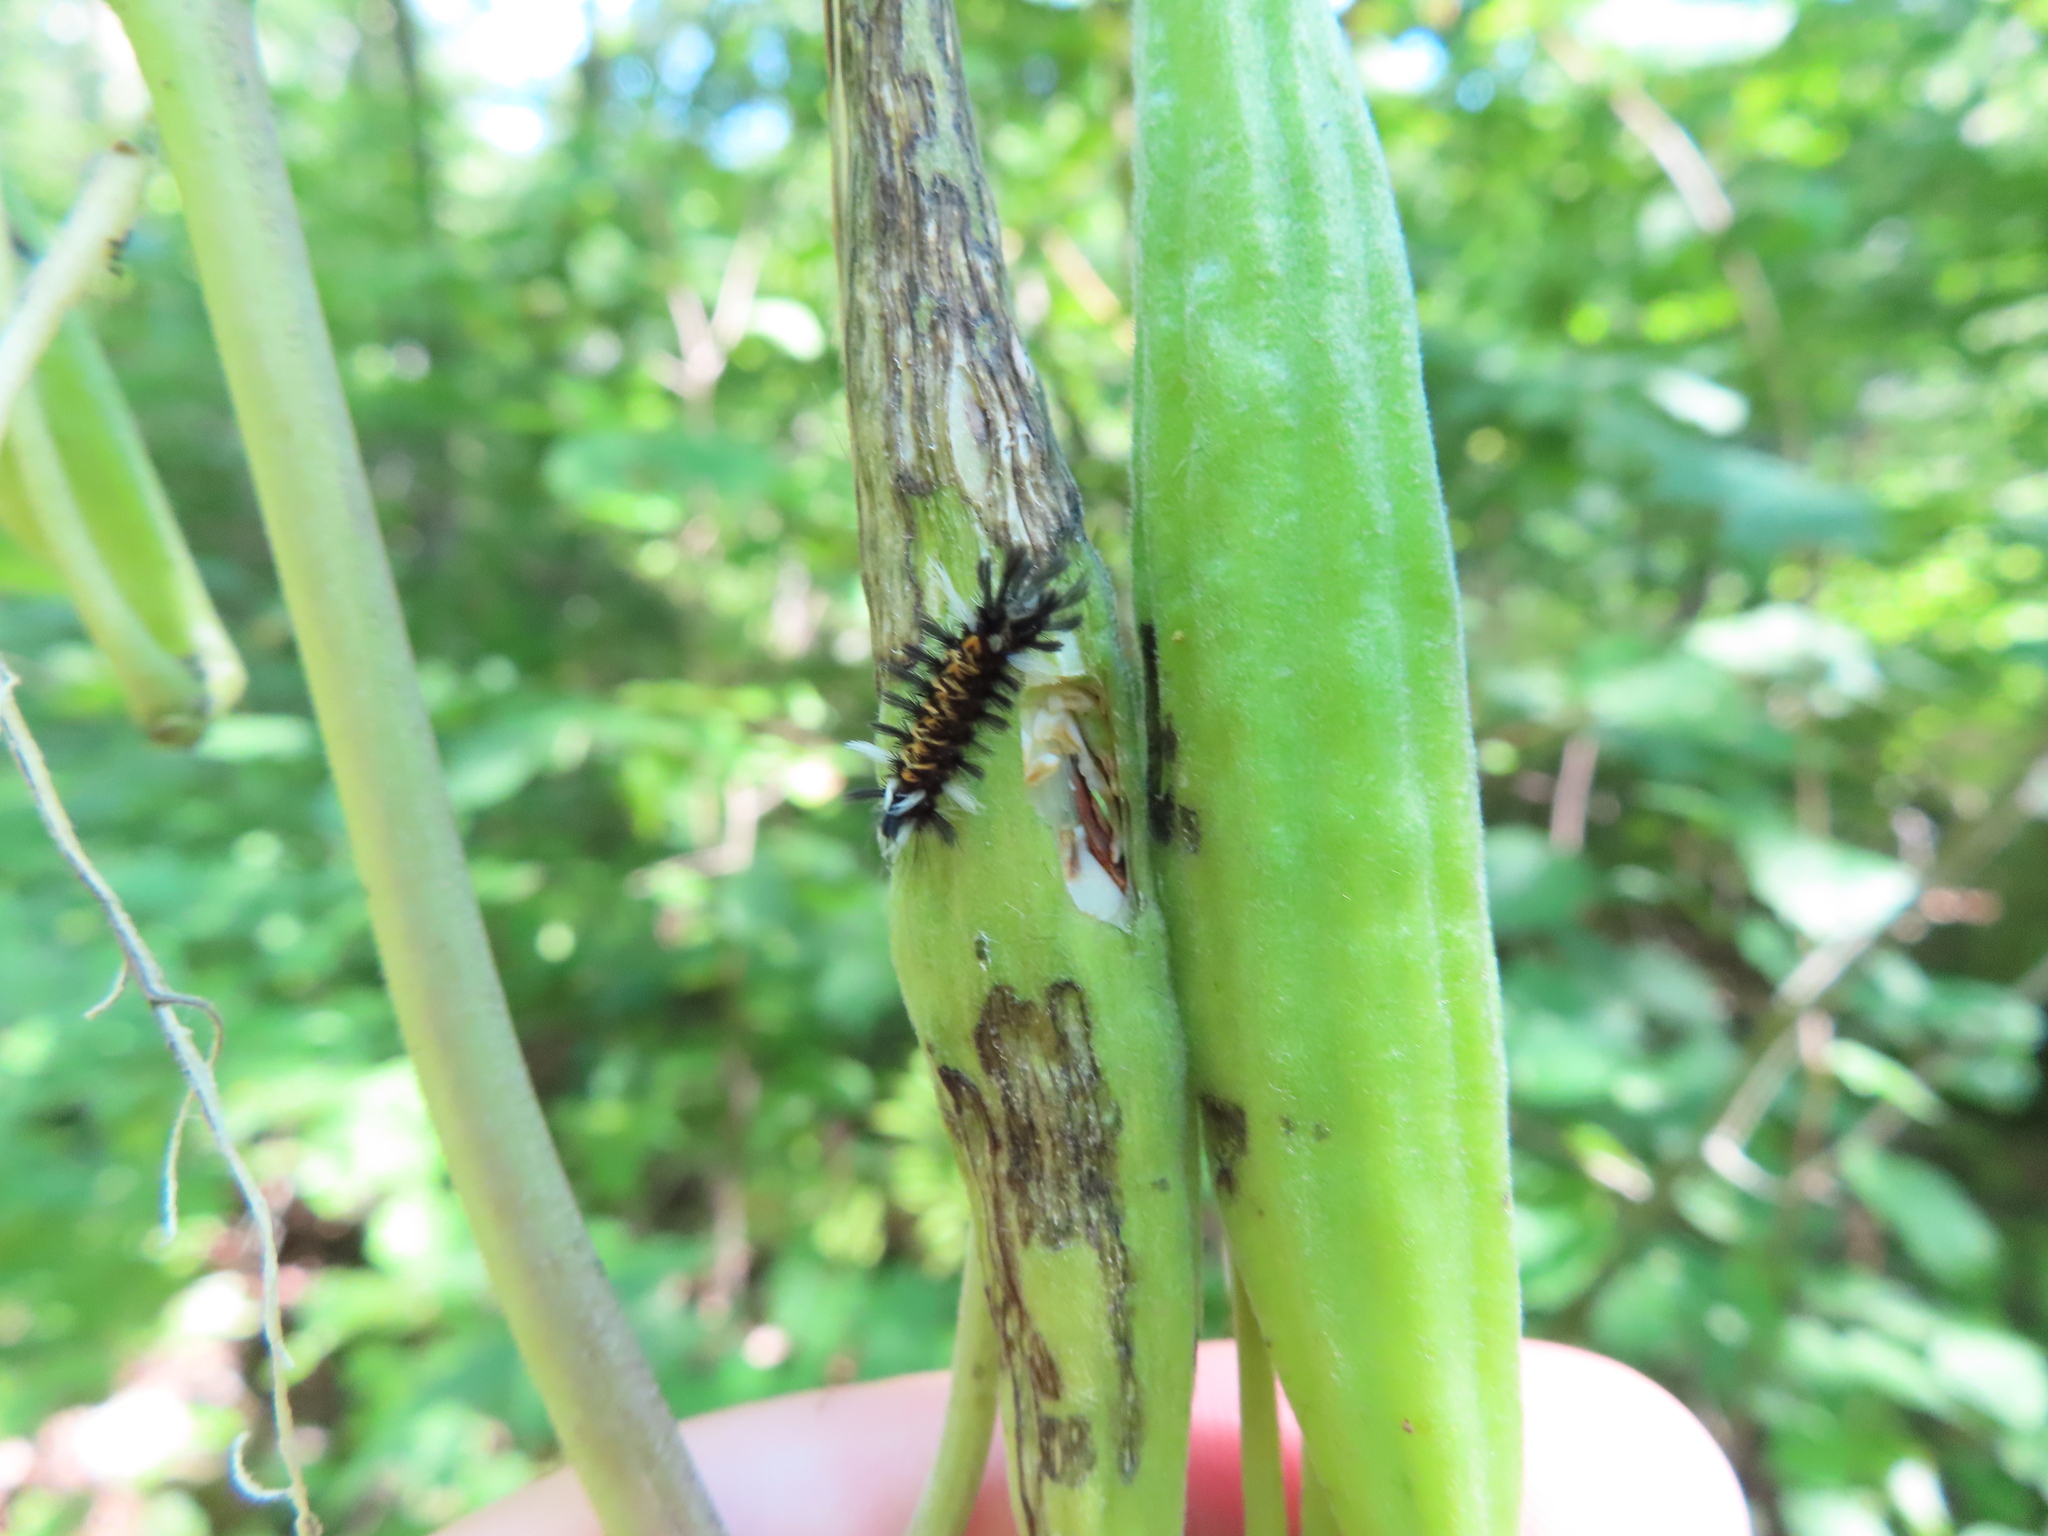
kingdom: Animalia
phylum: Arthropoda
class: Insecta
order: Lepidoptera
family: Erebidae
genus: Euchaetes
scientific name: Euchaetes egle
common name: Milkweed tussock moth
